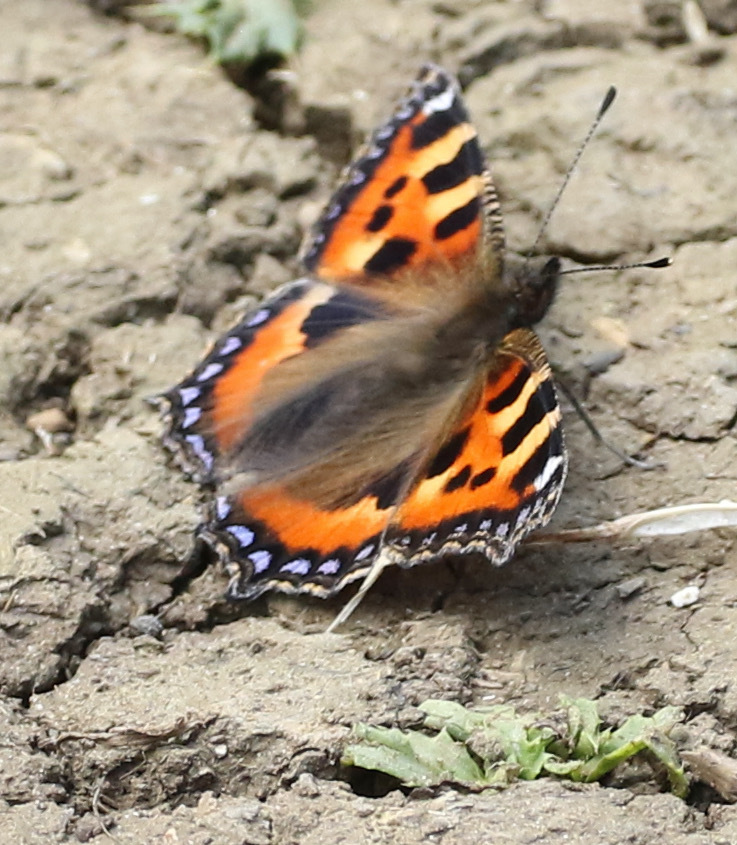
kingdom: Animalia
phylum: Arthropoda
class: Insecta
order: Lepidoptera
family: Nymphalidae
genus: Aglais
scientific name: Aglais urticae
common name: Small tortoiseshell
